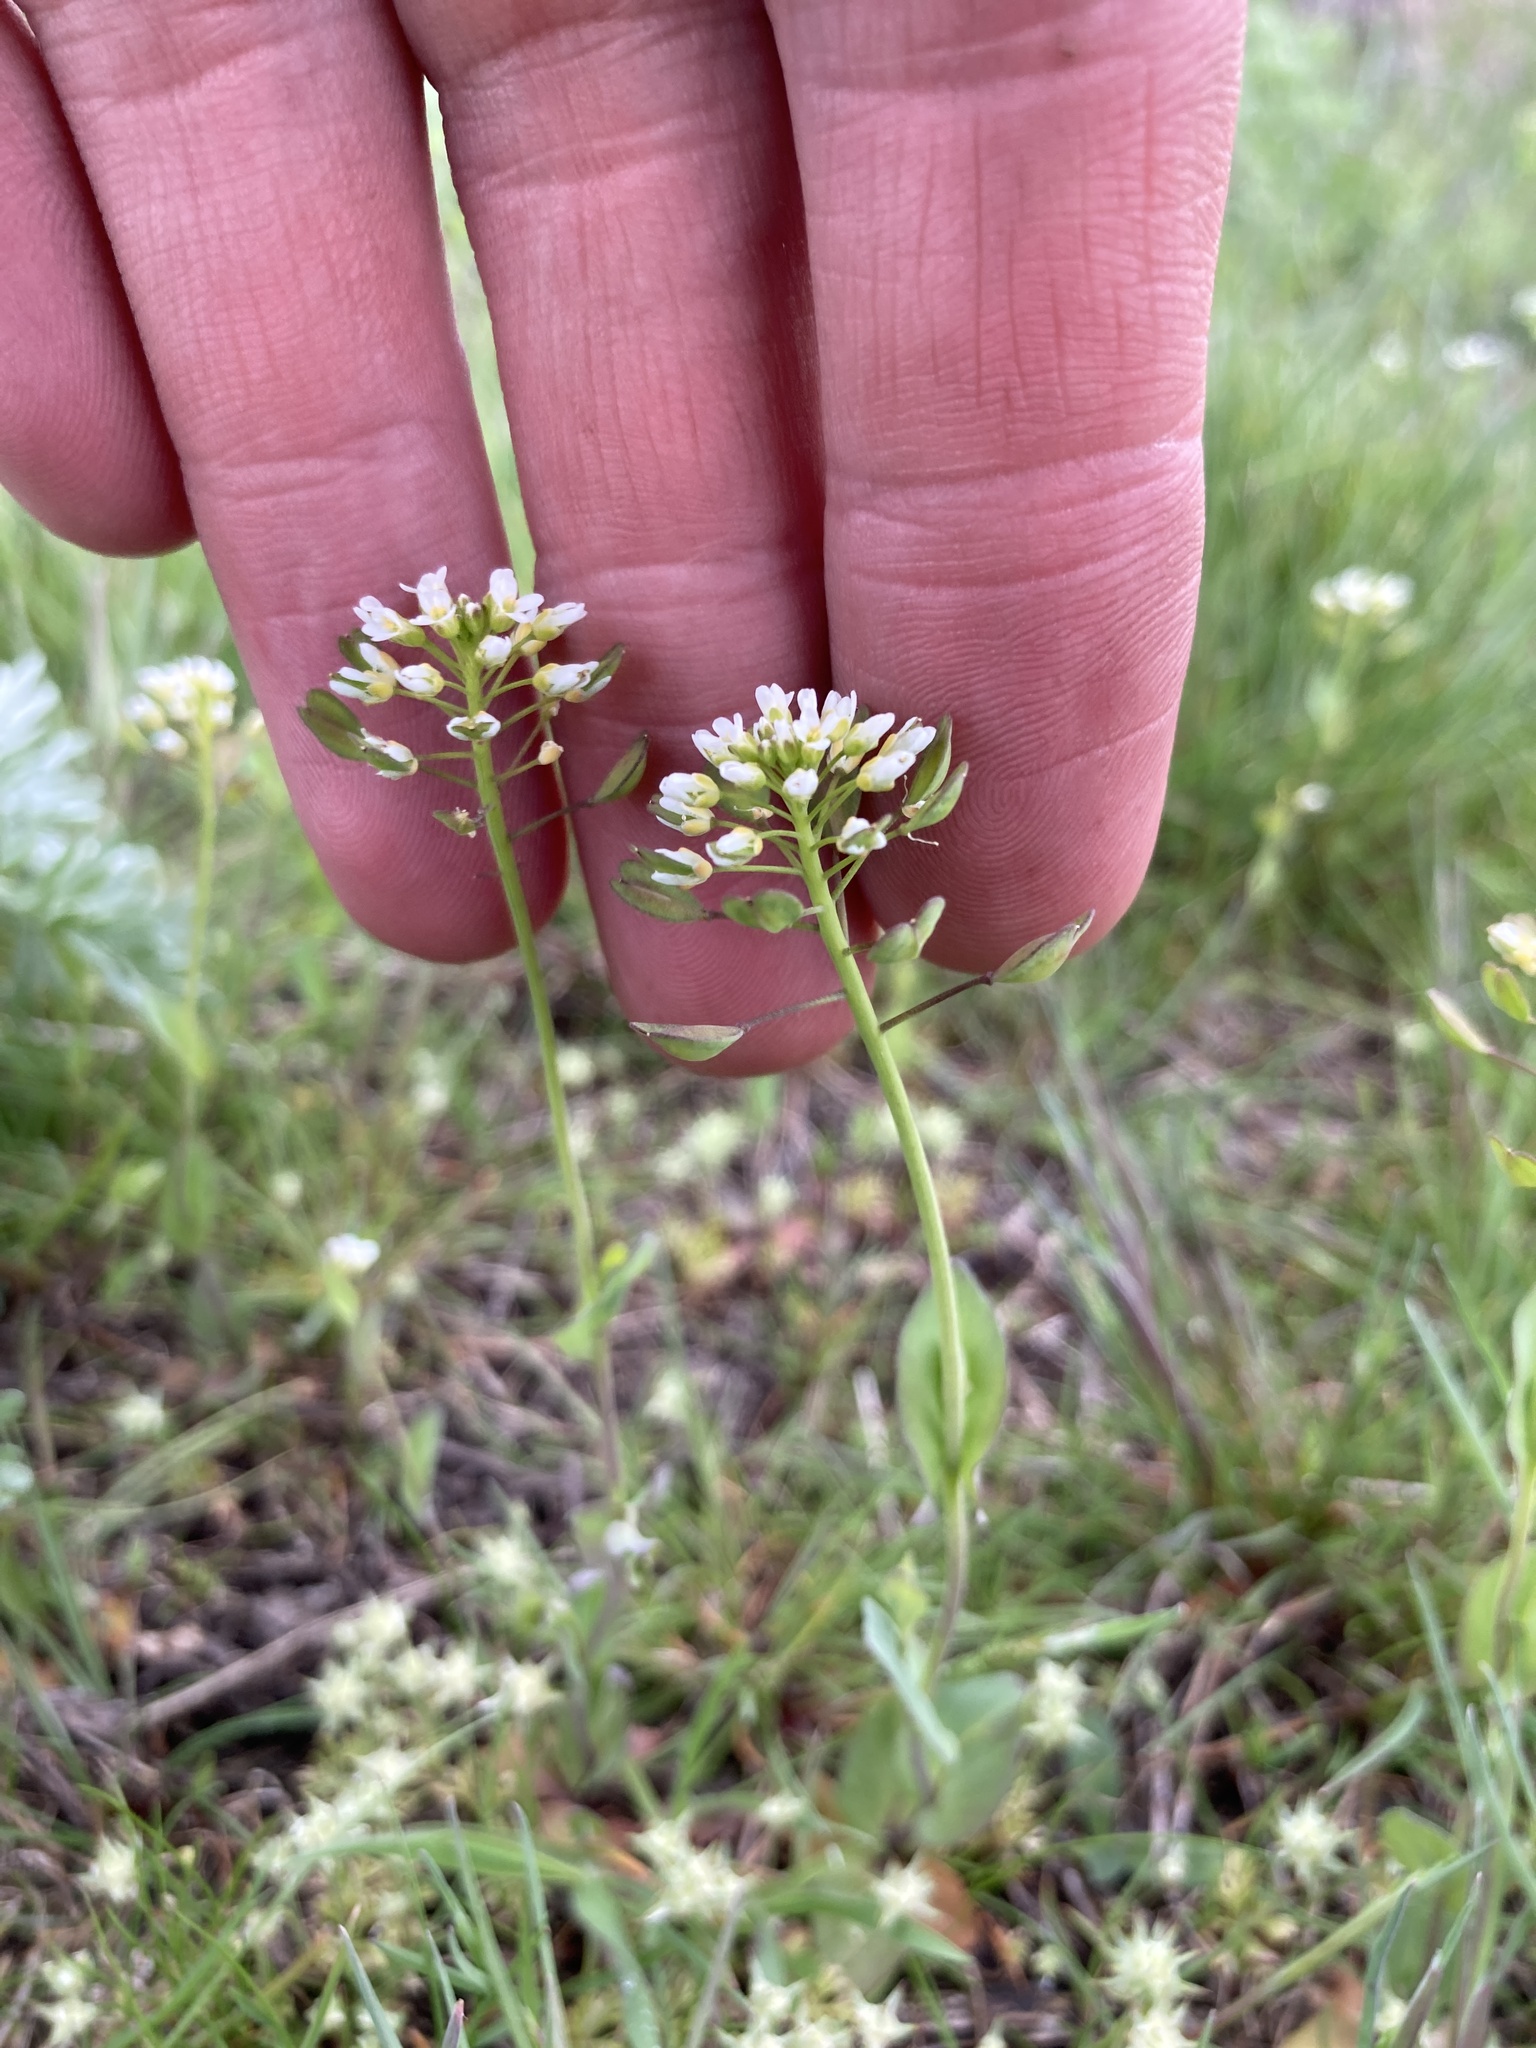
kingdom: Plantae
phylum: Tracheophyta
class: Magnoliopsida
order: Brassicales
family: Brassicaceae
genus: Noccaea
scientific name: Noccaea perfoliata
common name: Perfoliate pennycress
